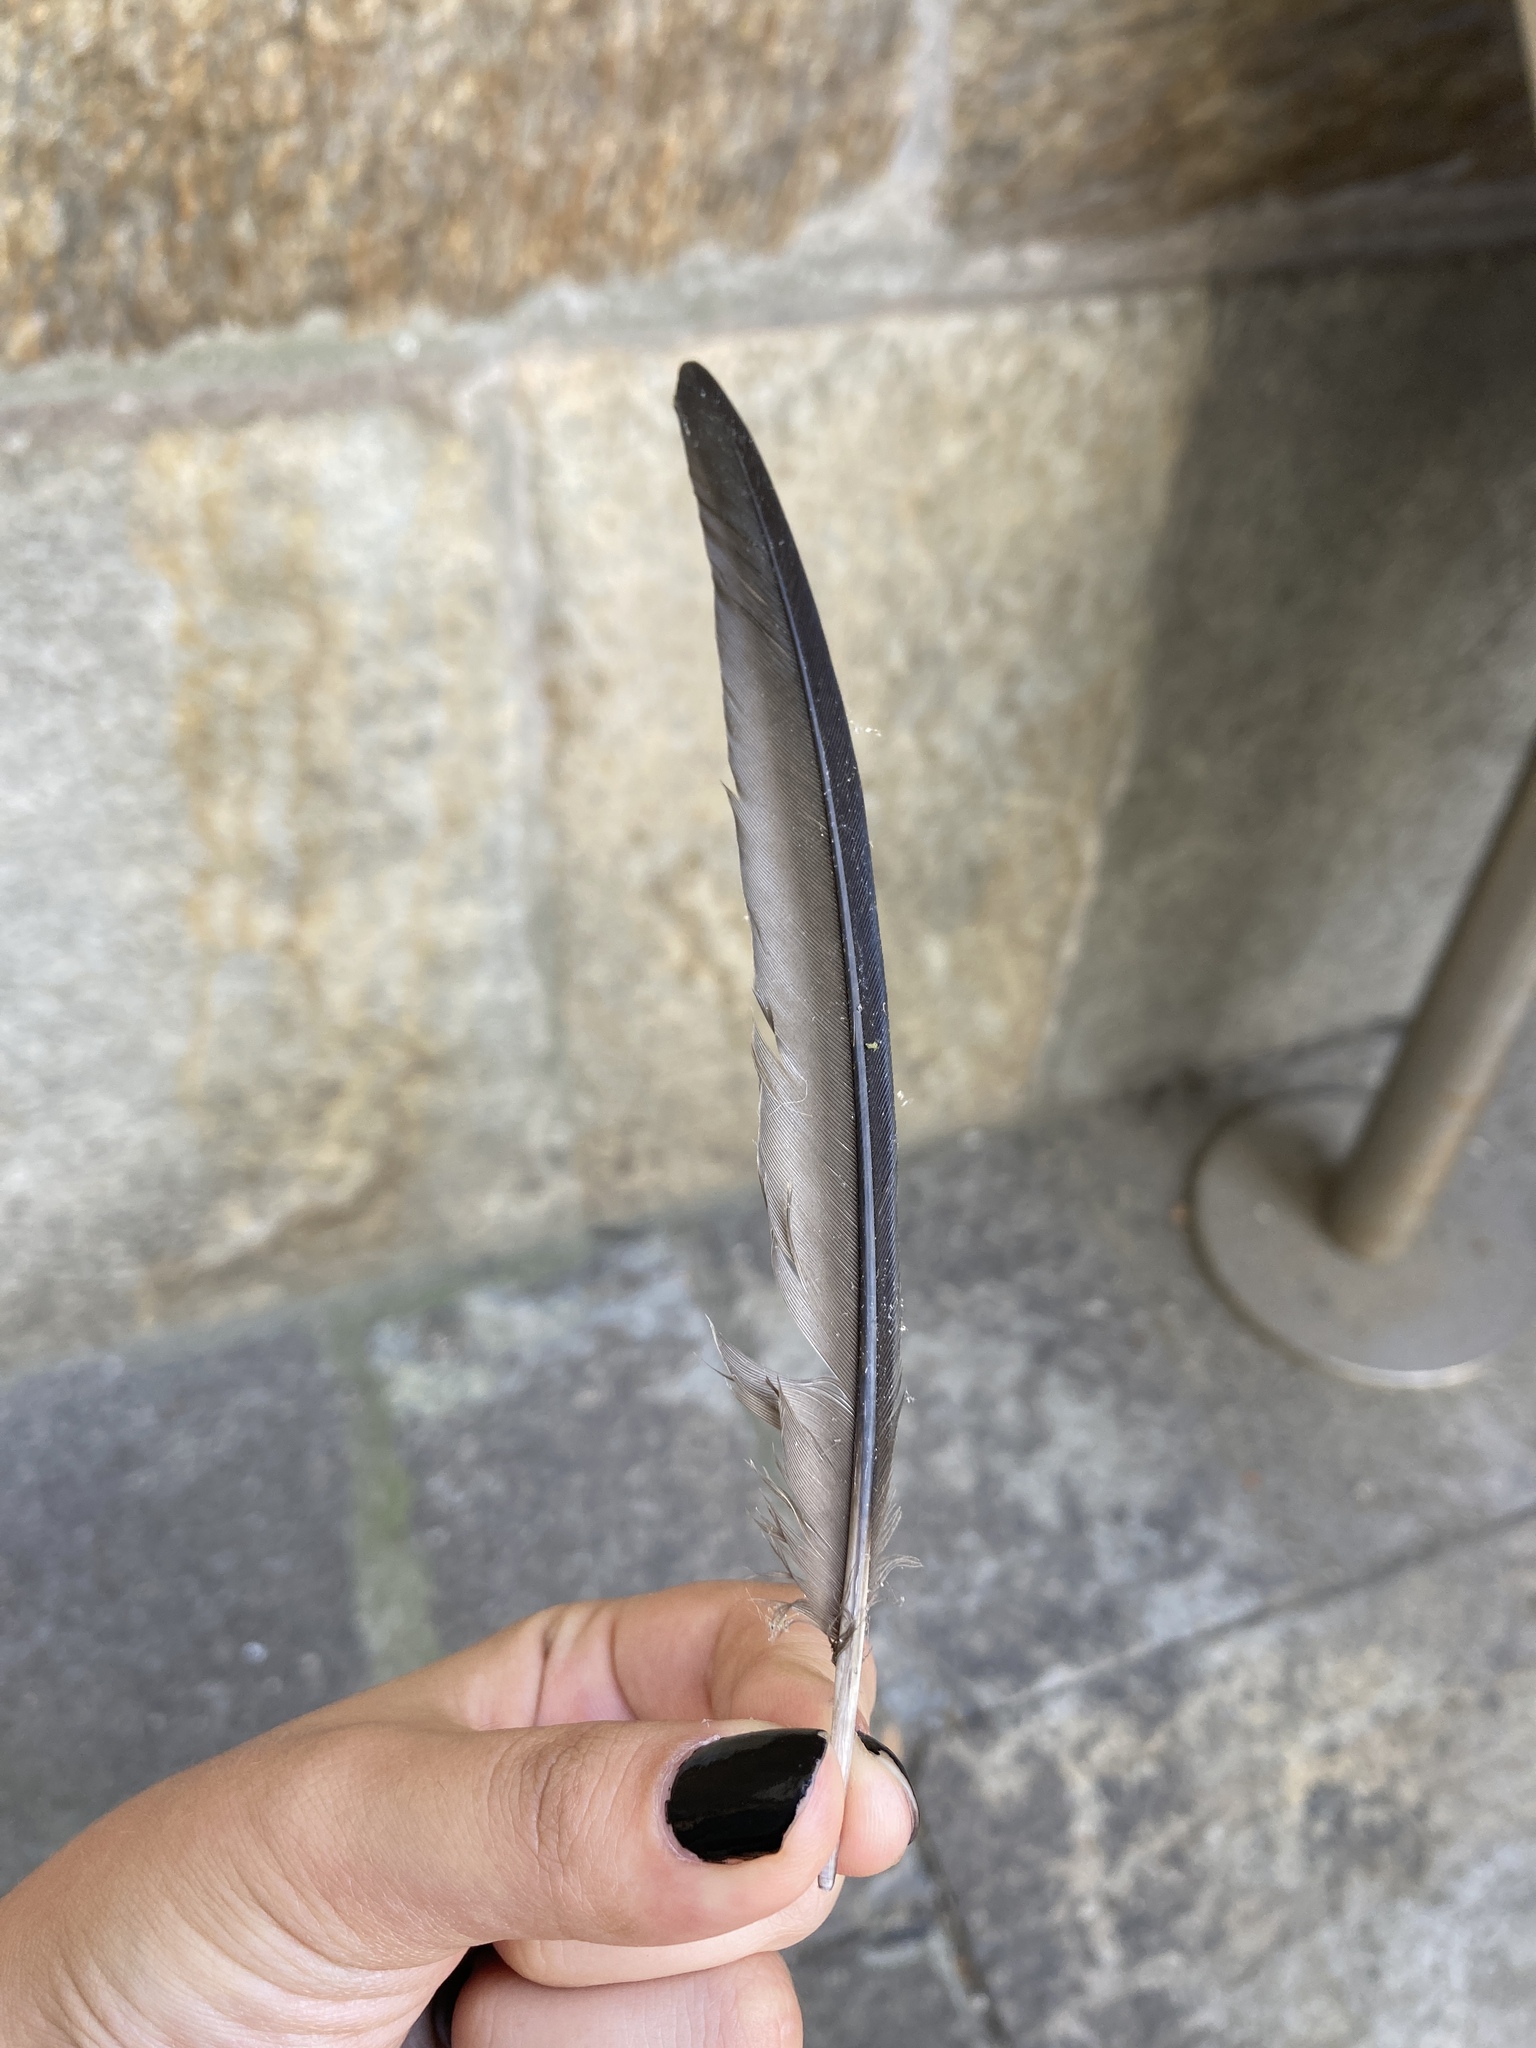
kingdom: Animalia
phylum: Chordata
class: Aves
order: Apodiformes
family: Apodidae
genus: Apus
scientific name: Apus apus
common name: Common swift
